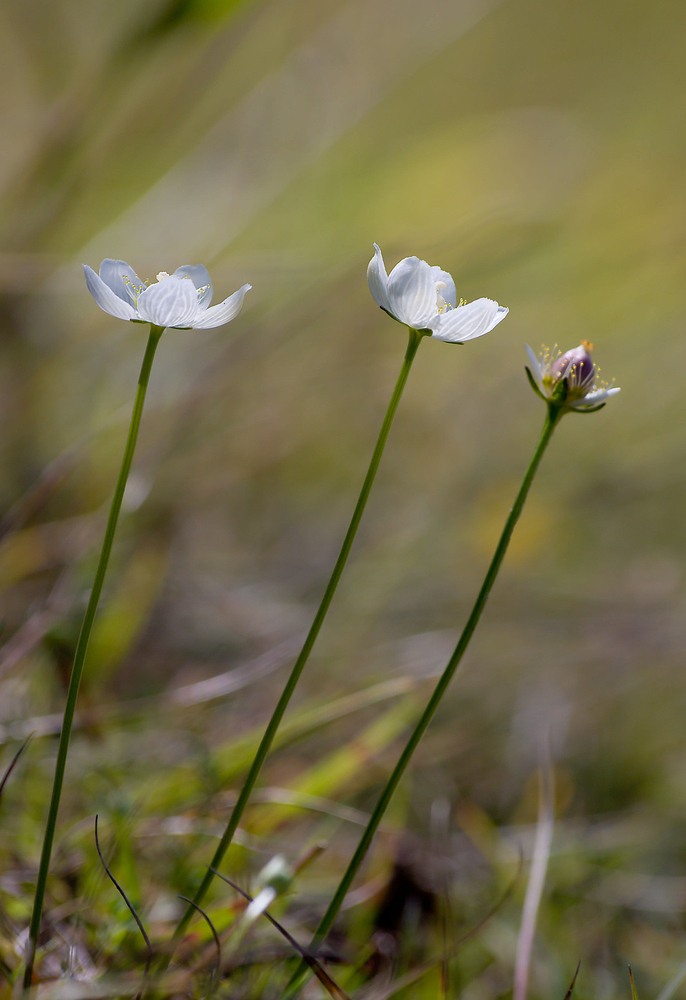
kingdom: Plantae
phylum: Tracheophyta
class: Magnoliopsida
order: Celastrales
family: Parnassiaceae
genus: Parnassia
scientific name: Parnassia palustris
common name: Grass-of-parnassus
